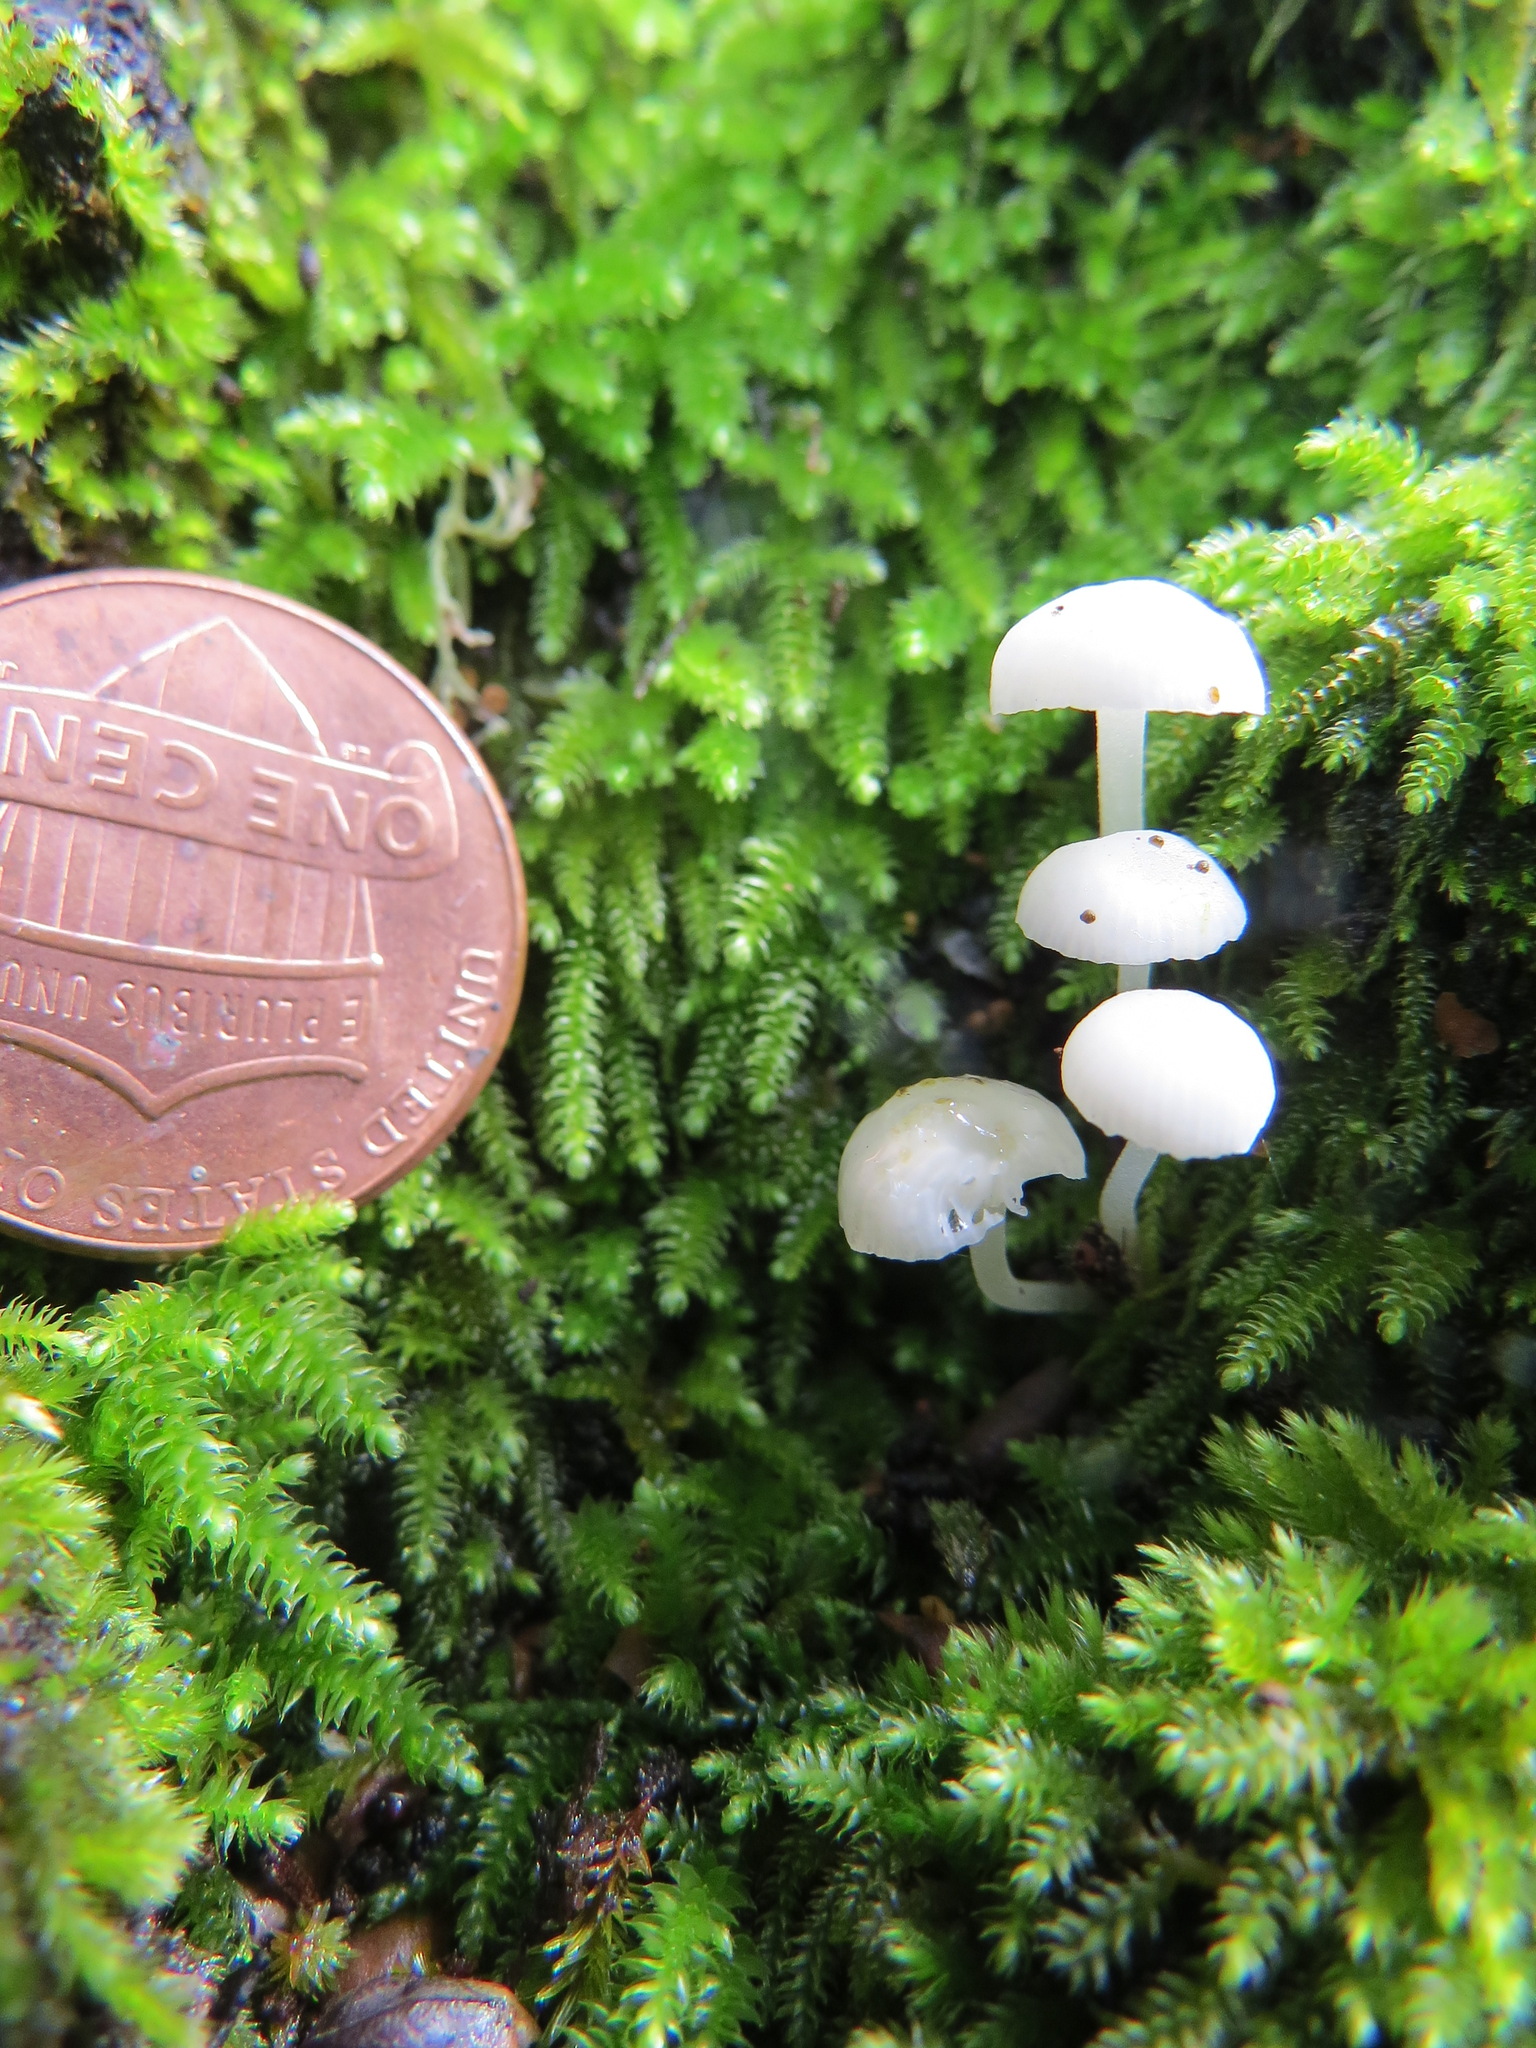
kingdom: Fungi
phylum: Basidiomycota
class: Agaricomycetes
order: Agaricales
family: Mycenaceae
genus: Mycena
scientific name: Mycena tenerrima
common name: Frosty bonnet
